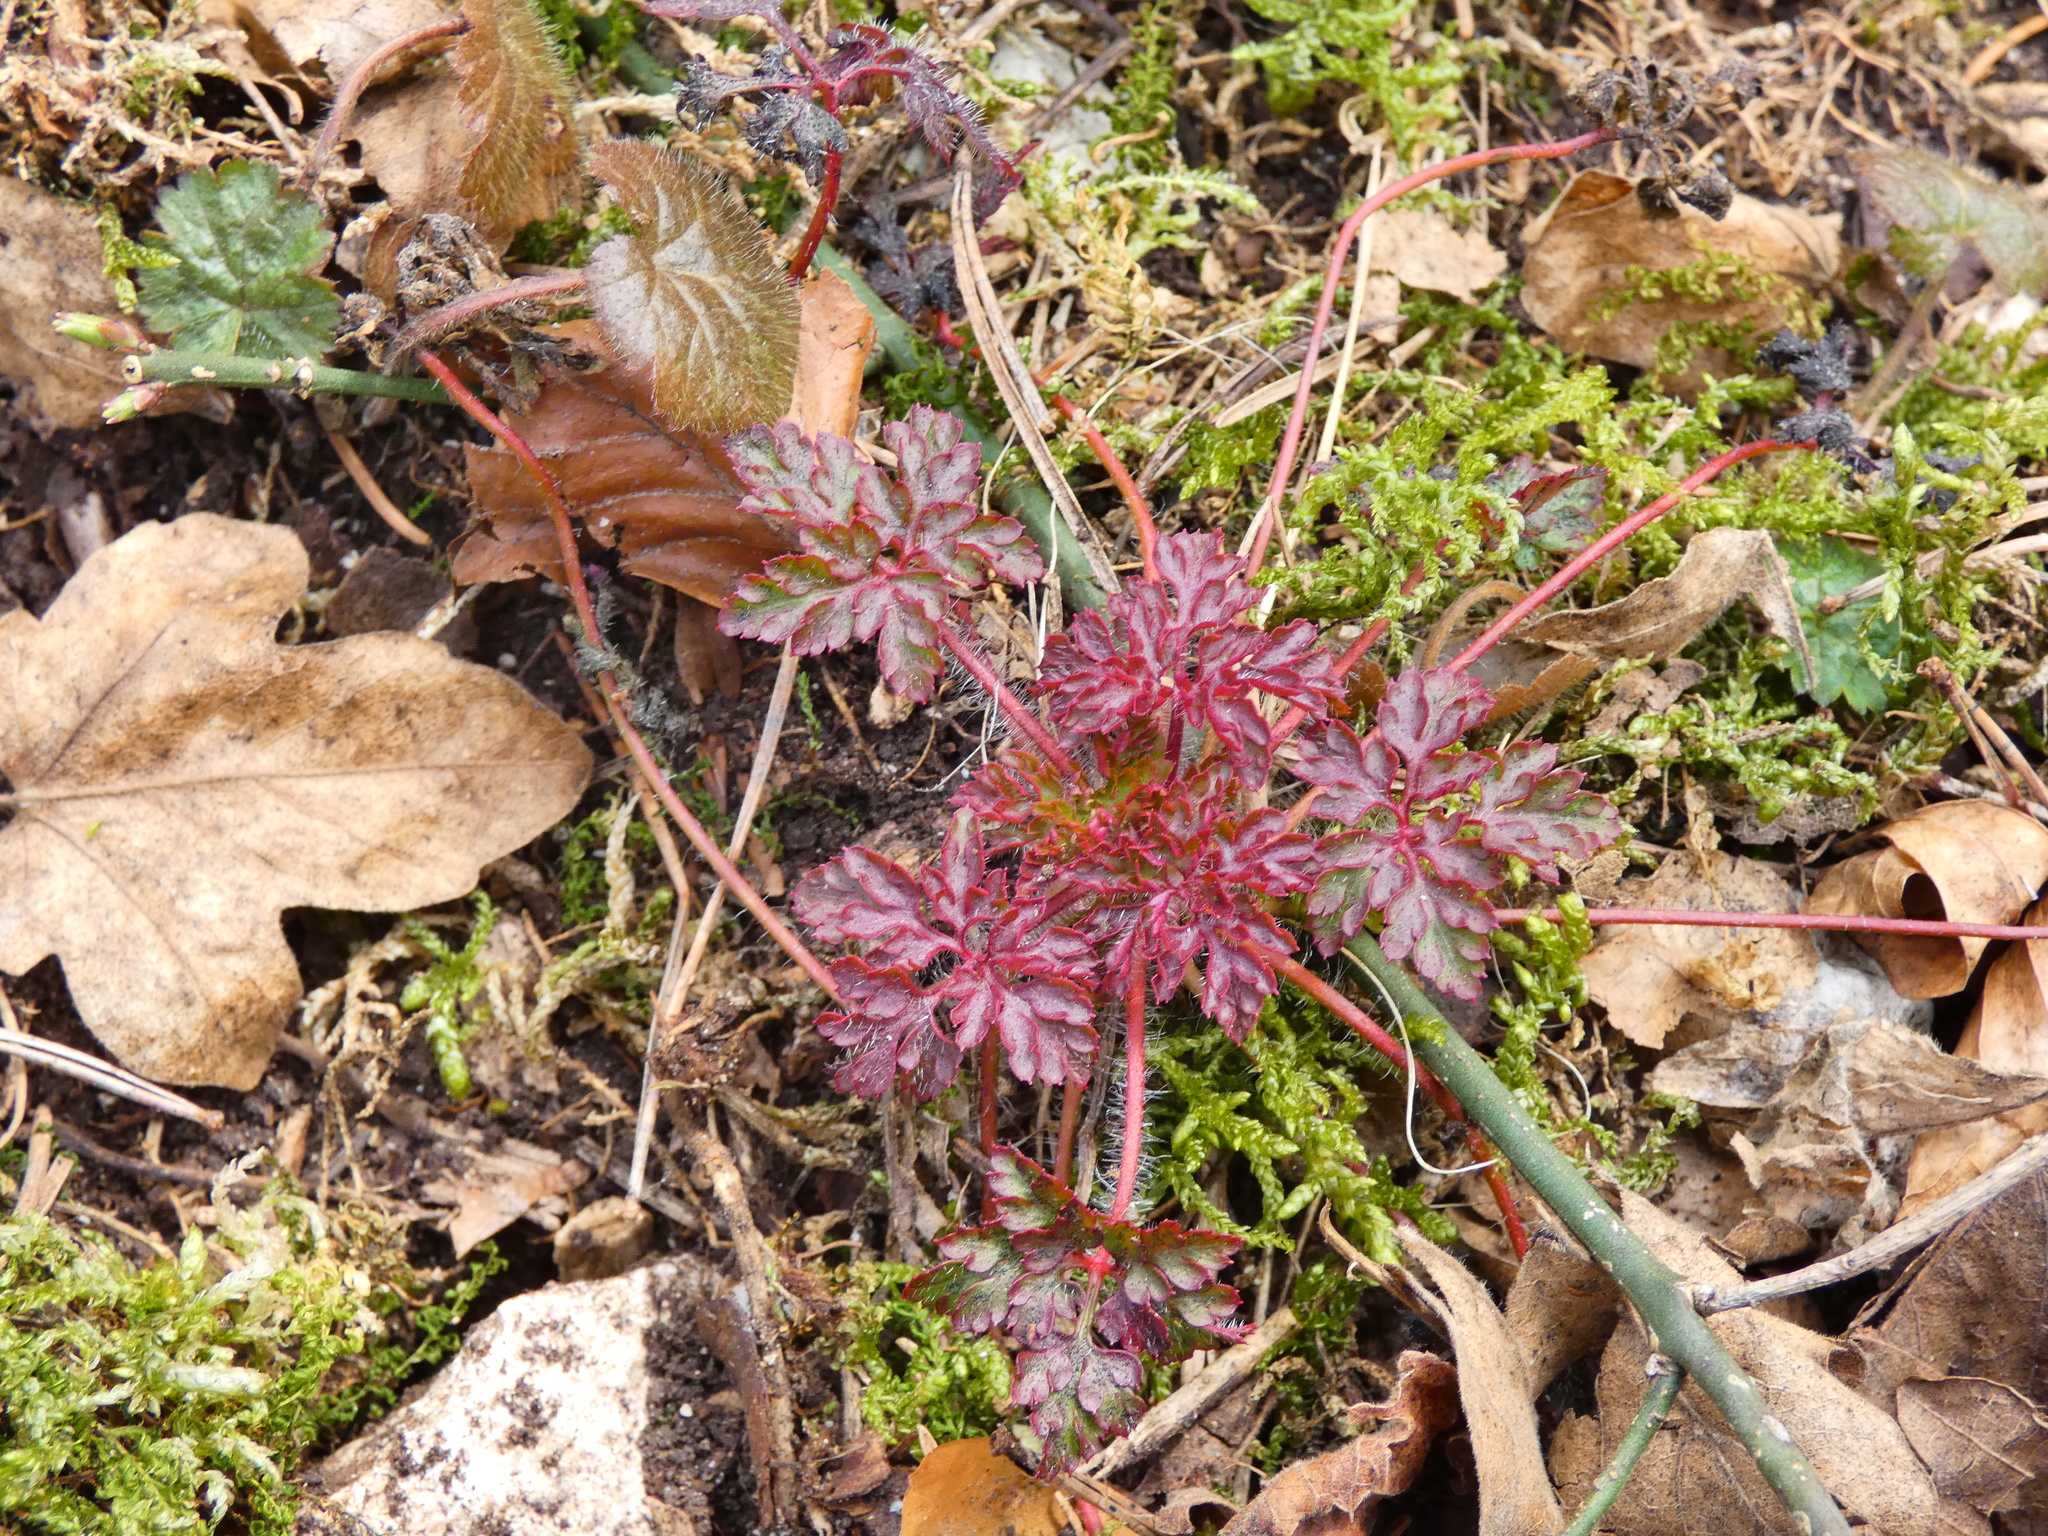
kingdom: Plantae
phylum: Tracheophyta
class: Magnoliopsida
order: Geraniales
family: Geraniaceae
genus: Geranium
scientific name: Geranium robertianum
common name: Herb-robert
